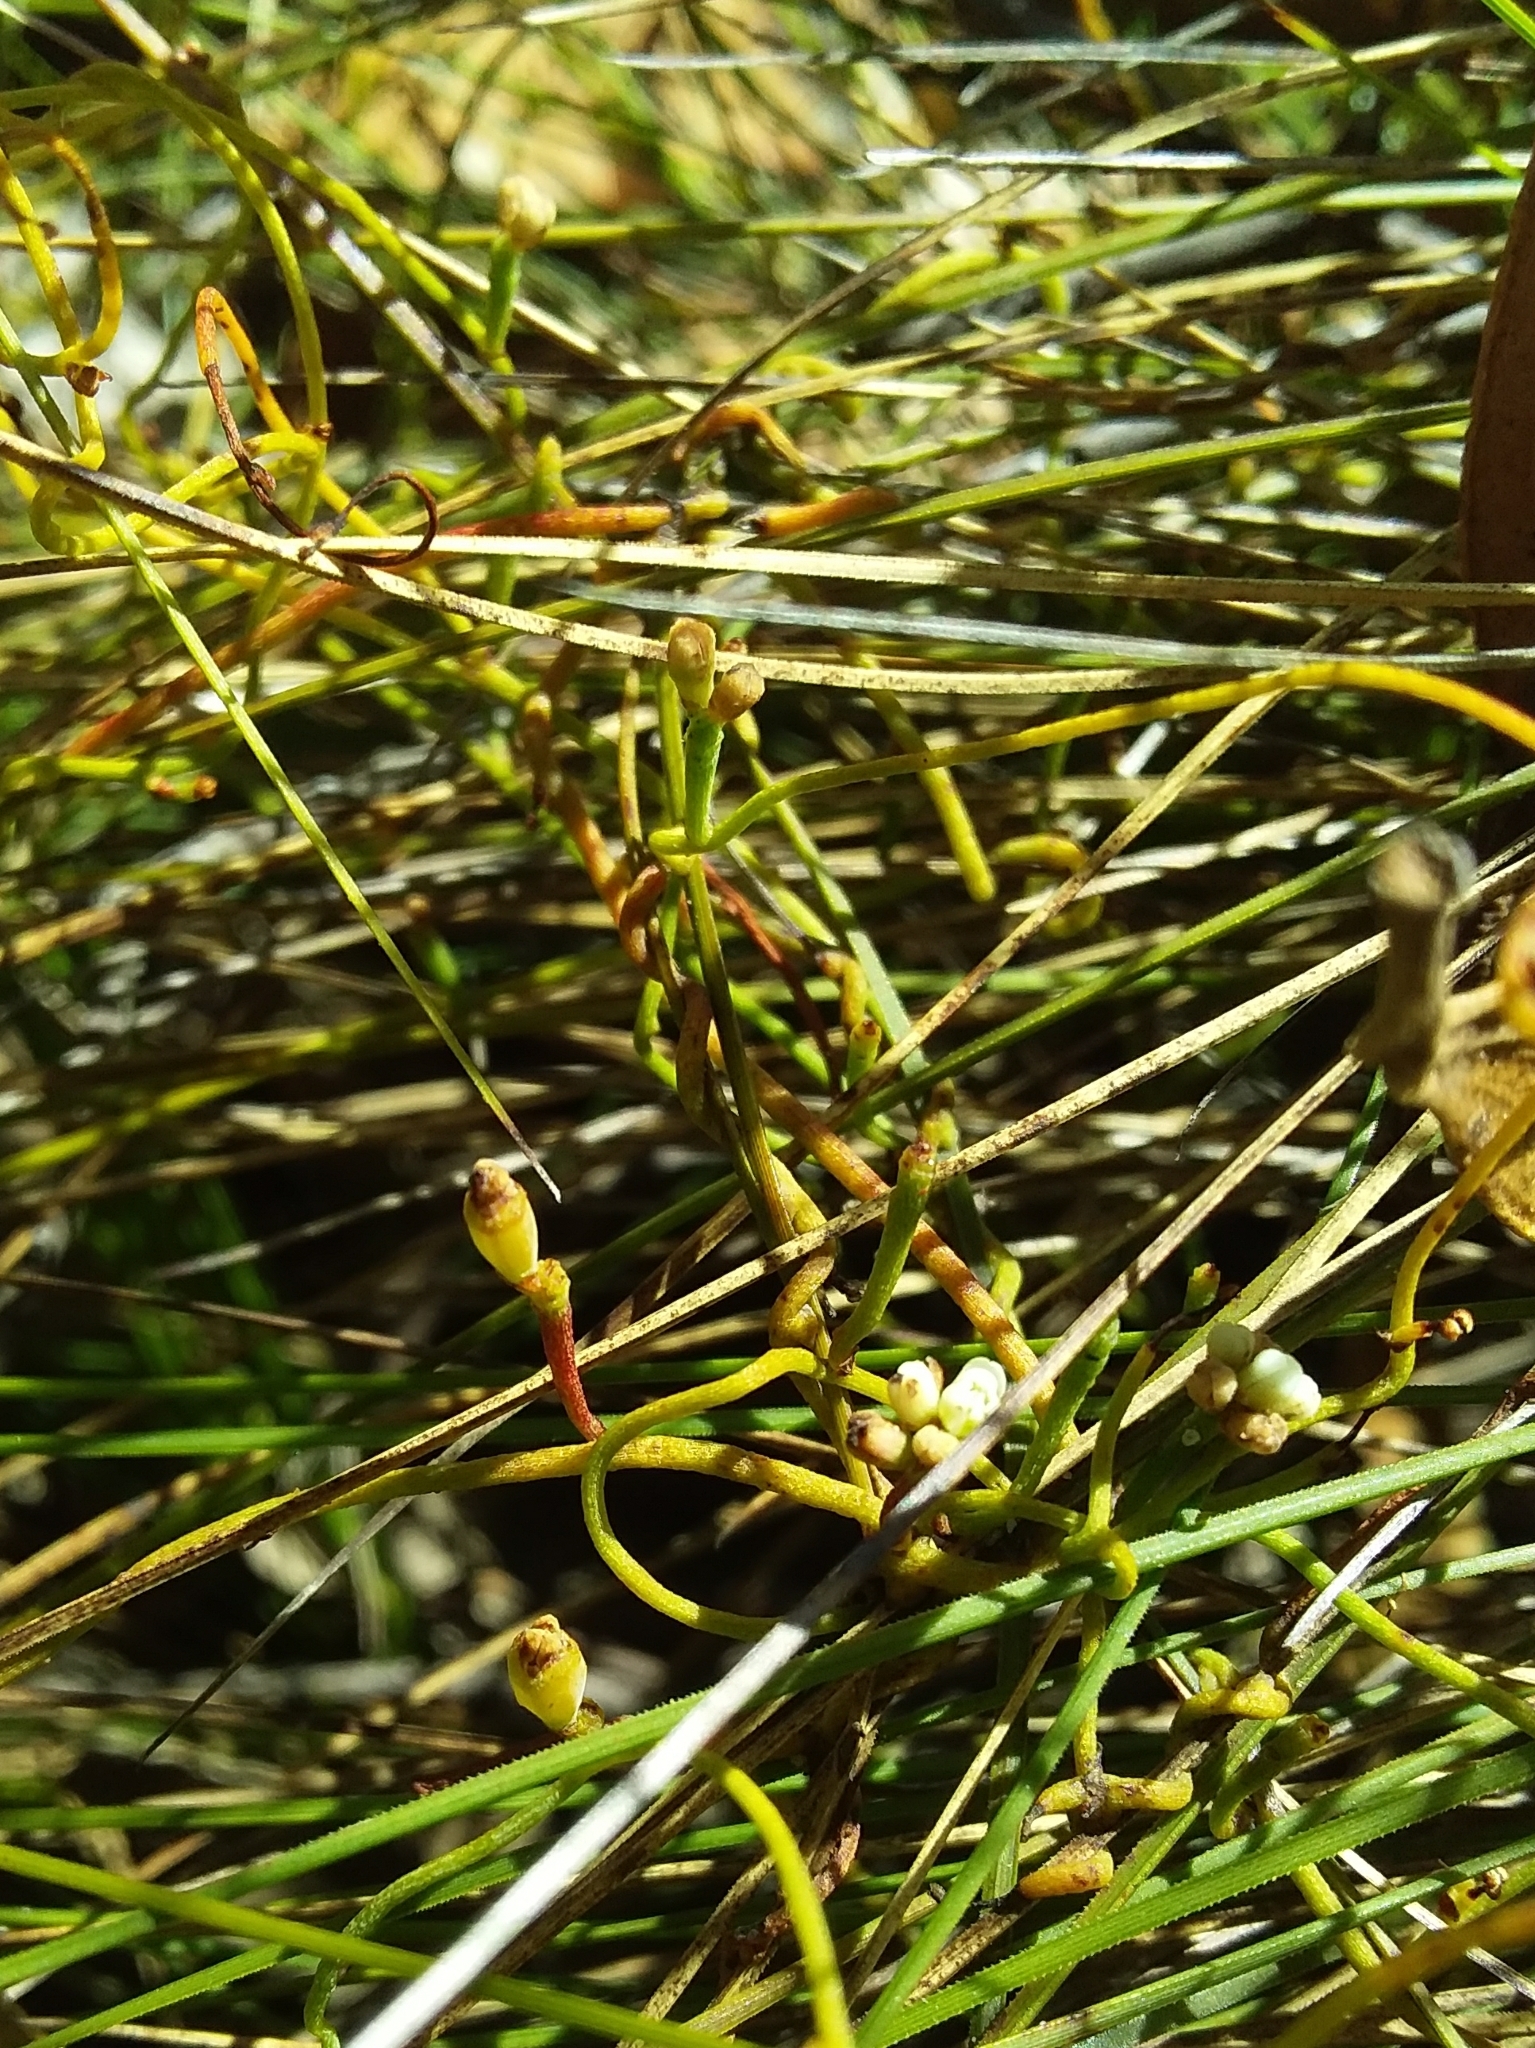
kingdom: Plantae
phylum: Tracheophyta
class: Magnoliopsida
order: Laurales
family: Lauraceae
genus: Cassytha
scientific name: Cassytha glabella
